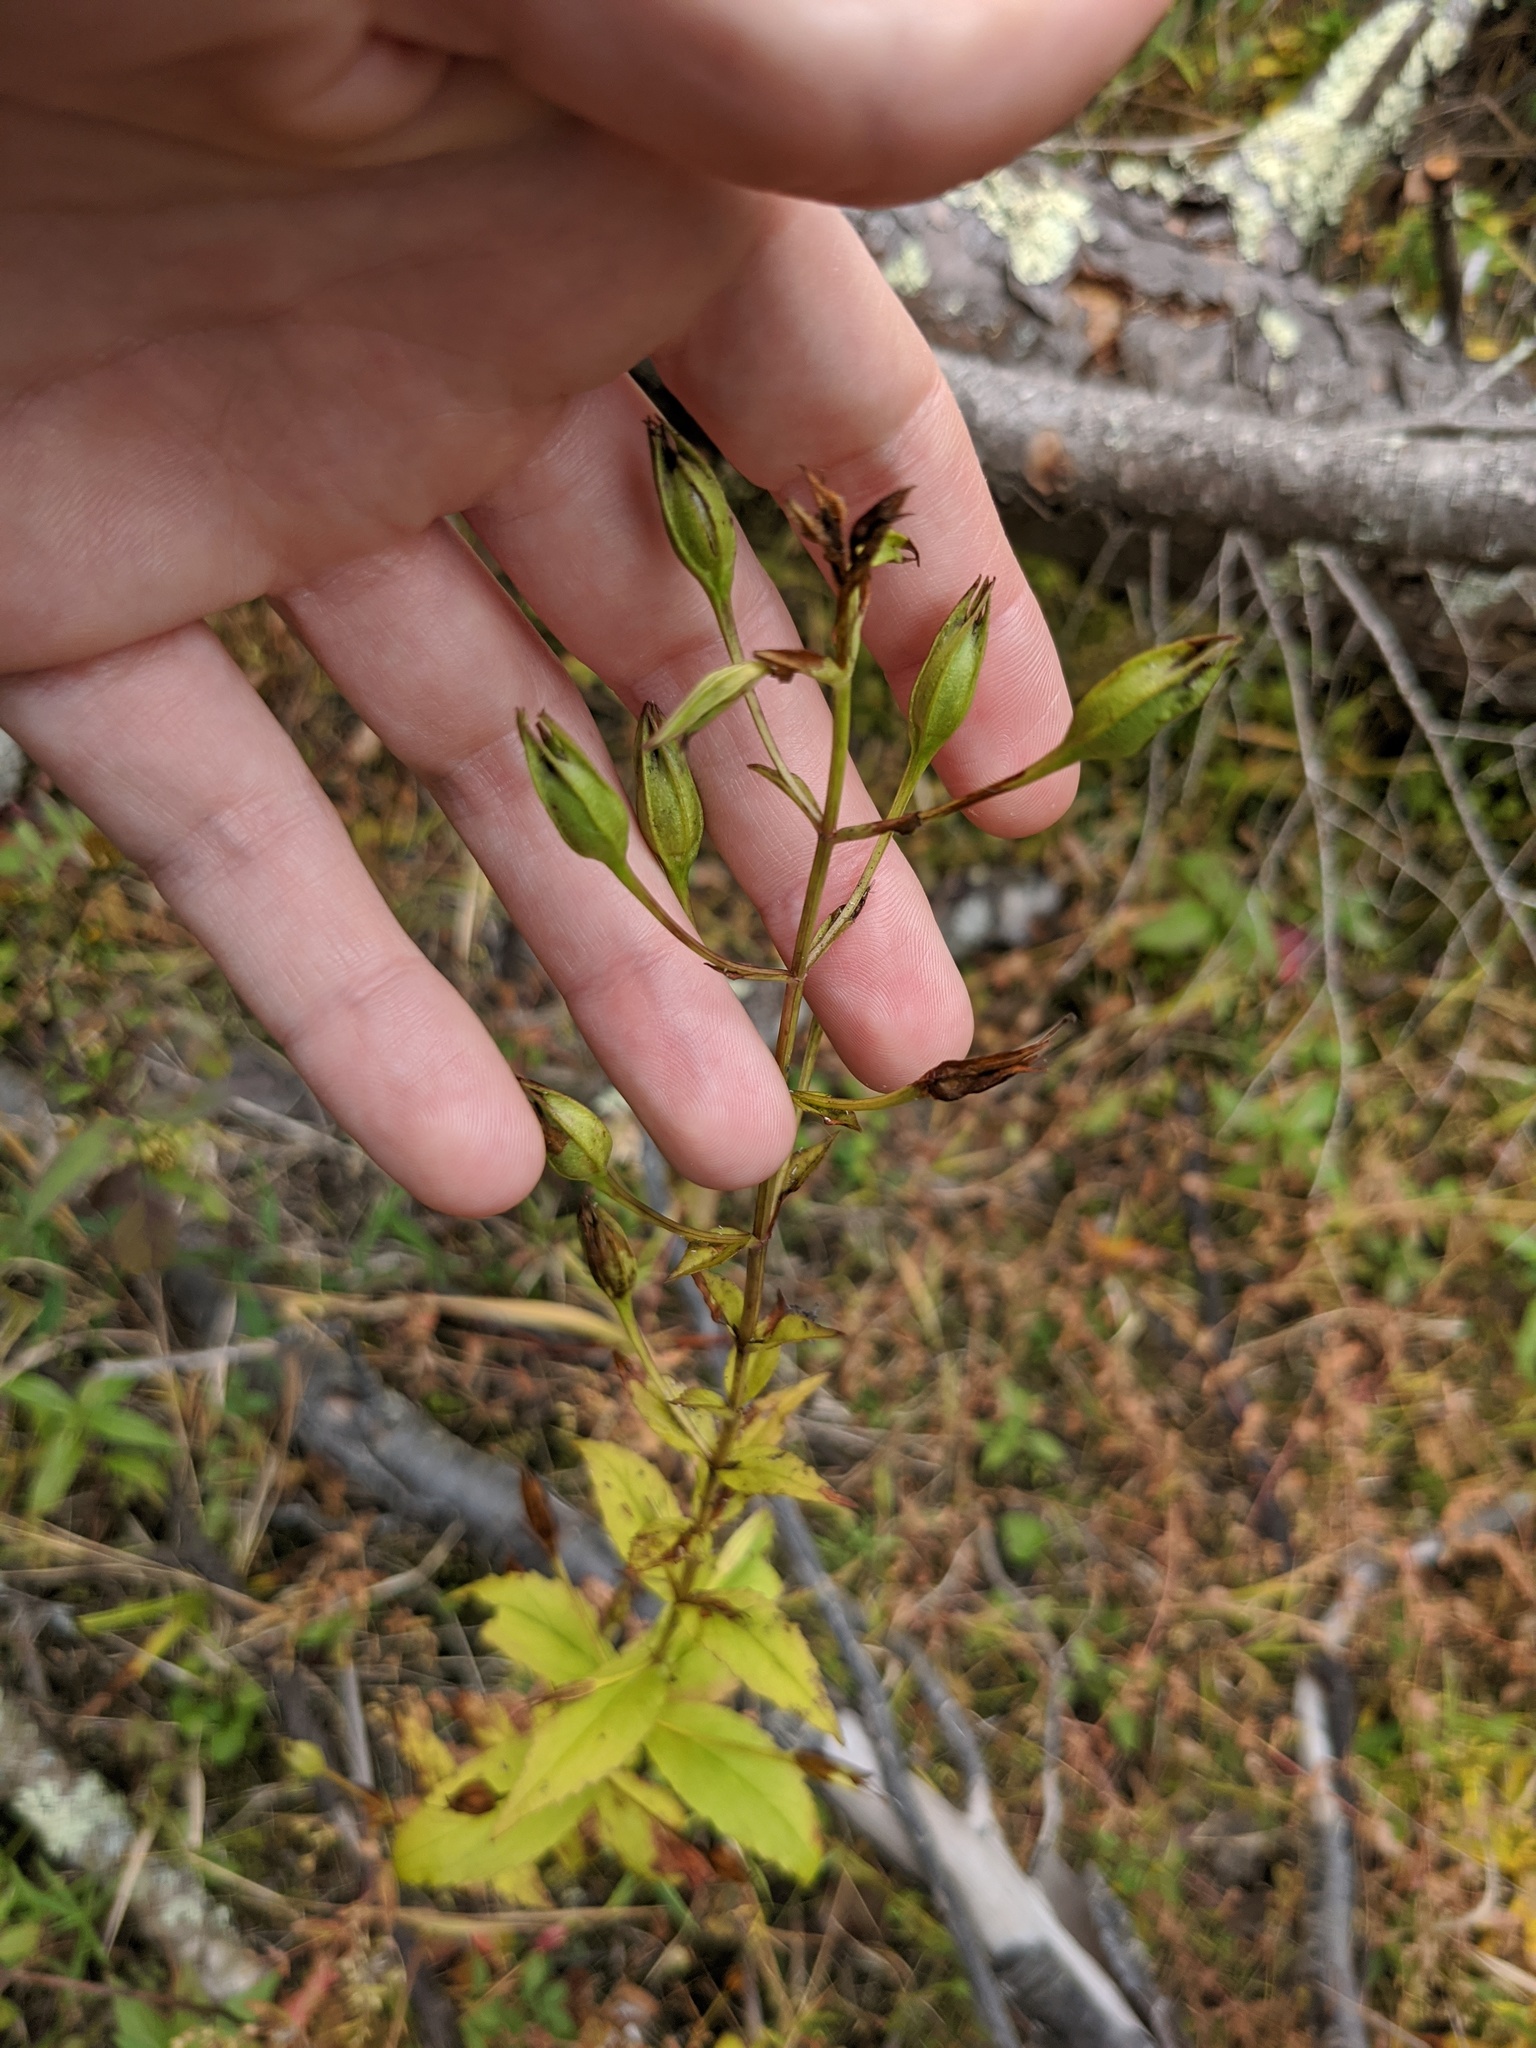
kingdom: Plantae
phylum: Tracheophyta
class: Magnoliopsida
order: Lamiales
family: Phrymaceae
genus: Mimulus
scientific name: Mimulus ringens
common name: Allegheny monkeyflower
